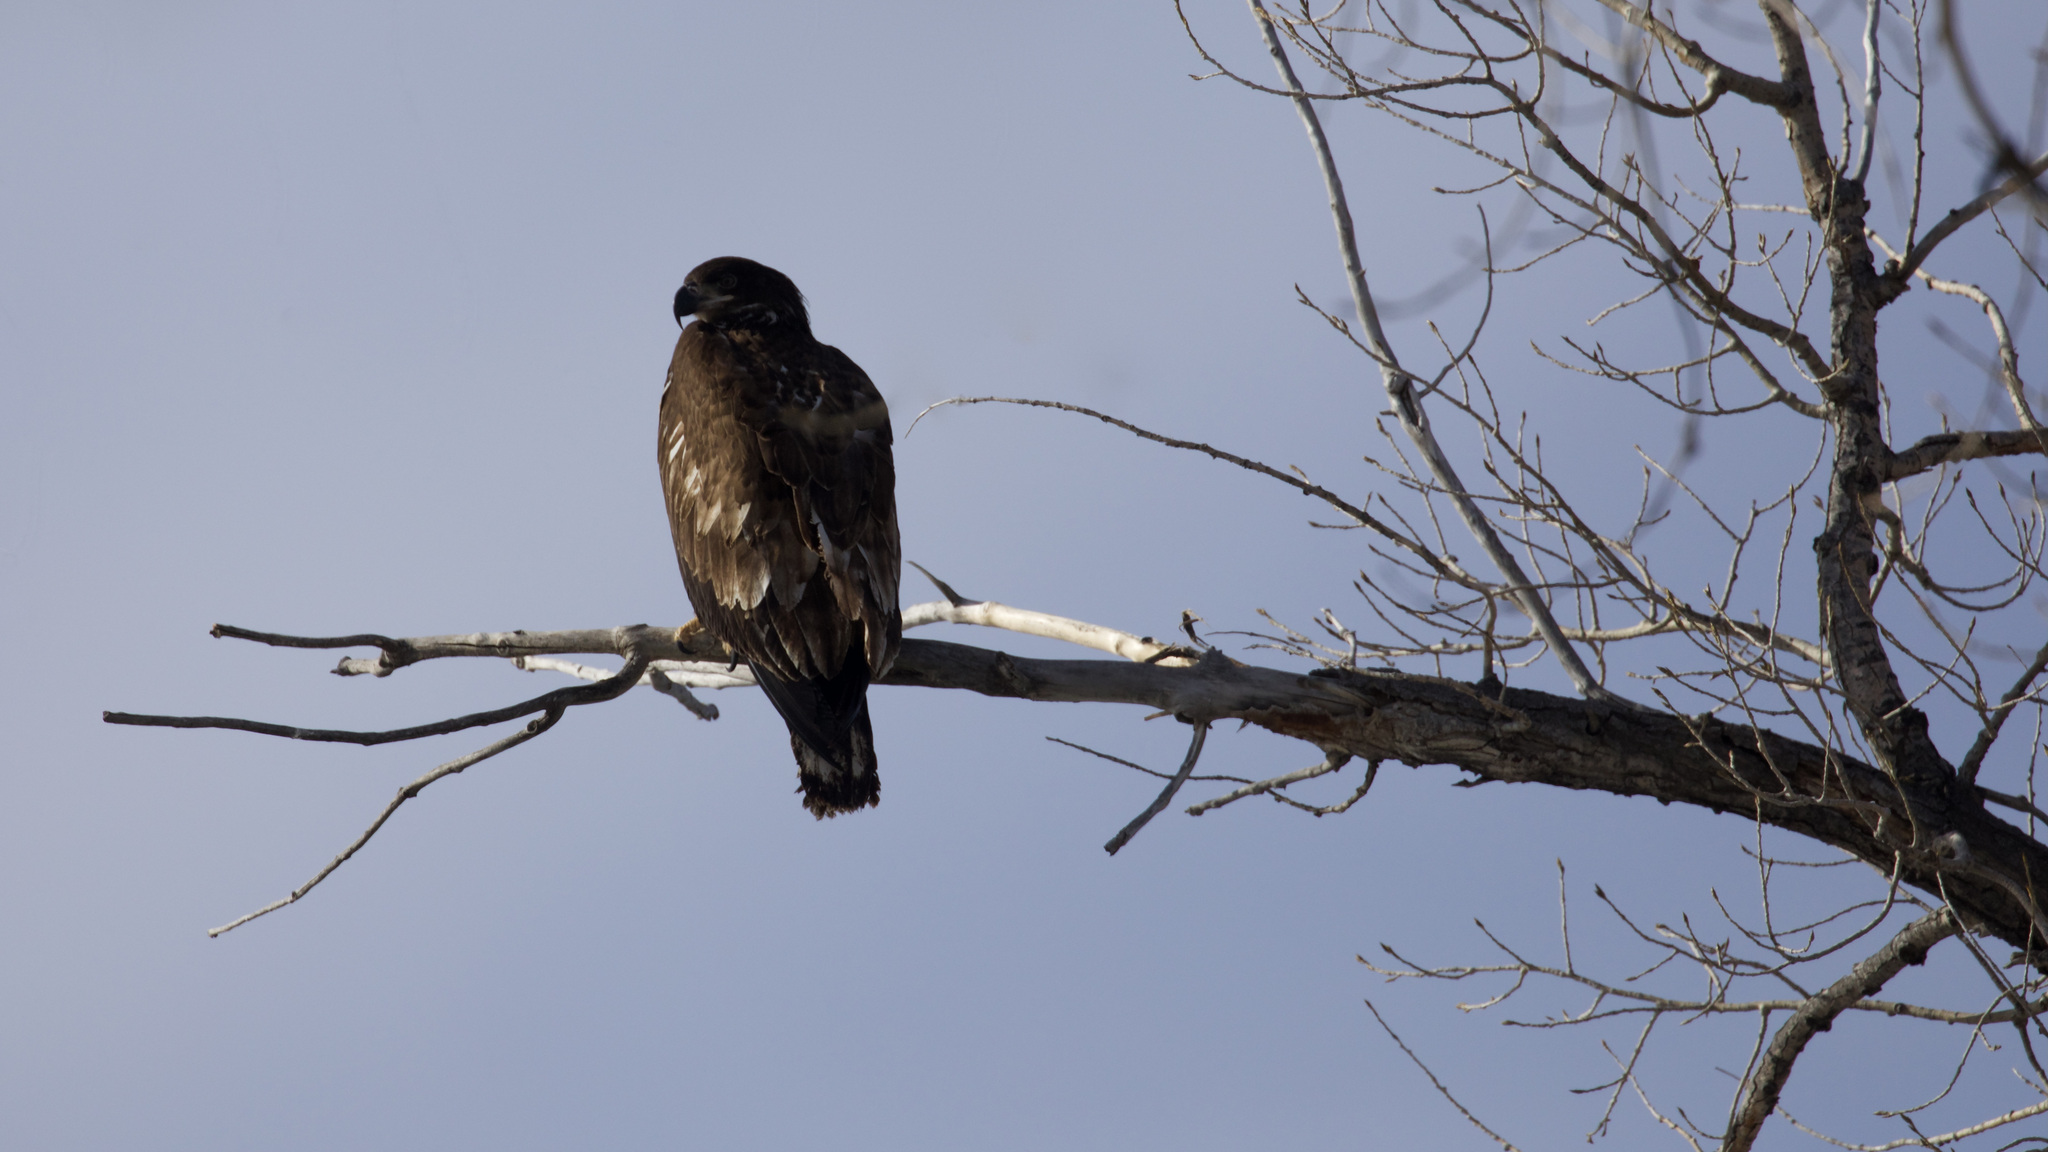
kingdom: Animalia
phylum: Chordata
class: Aves
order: Accipitriformes
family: Accipitridae
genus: Haliaeetus
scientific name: Haliaeetus leucocephalus
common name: Bald eagle
